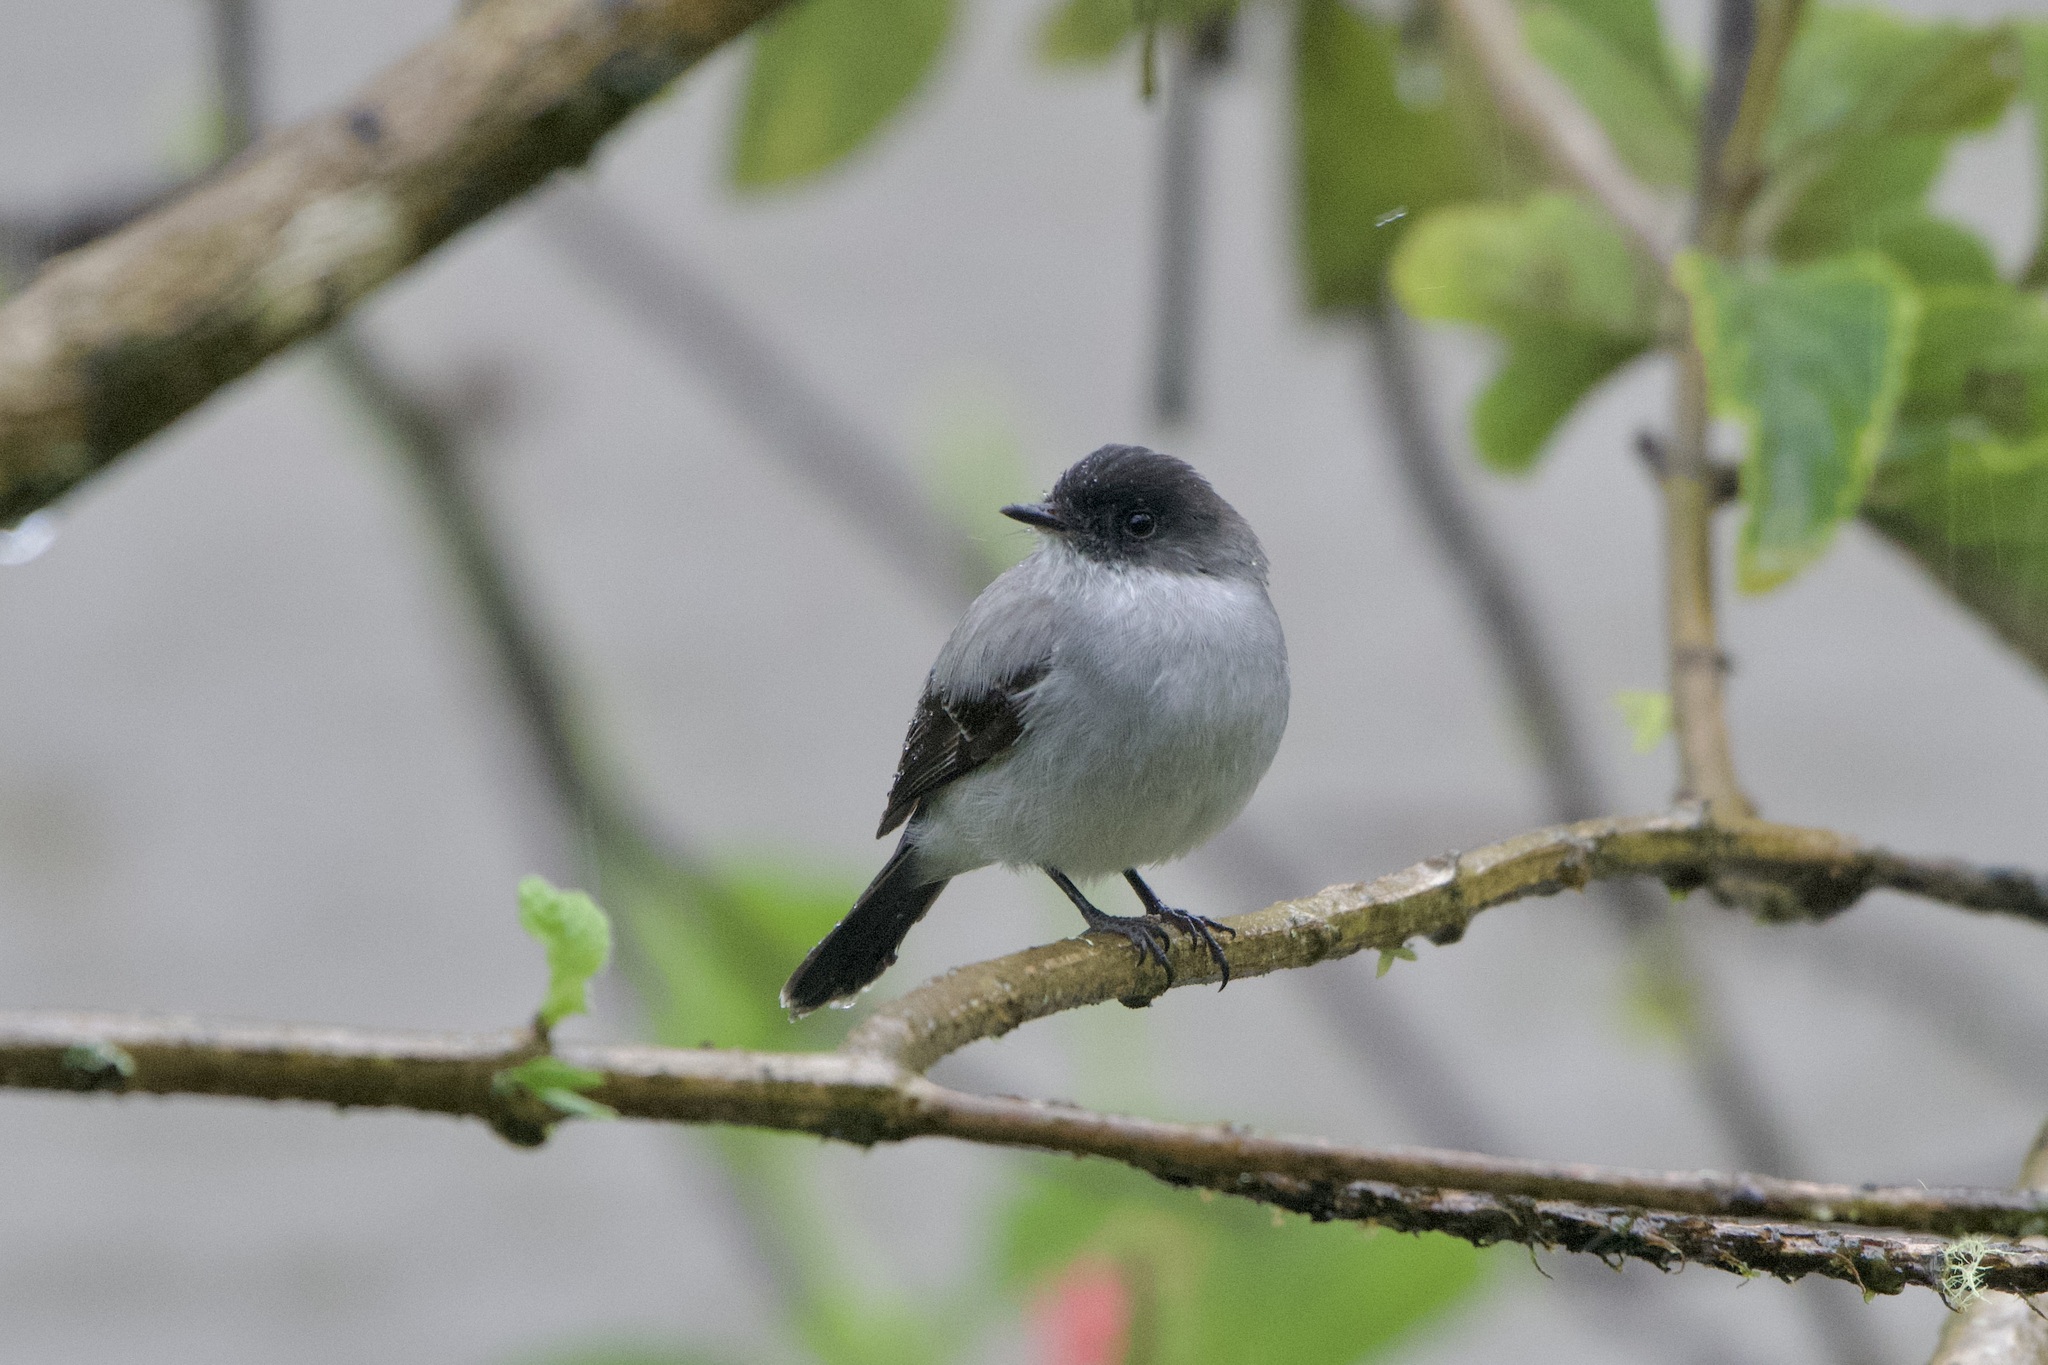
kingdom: Animalia
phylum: Chordata
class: Aves
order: Passeriformes
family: Tyrannidae
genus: Serpophaga
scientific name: Serpophaga cinerea
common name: Torrent tyrannulet
